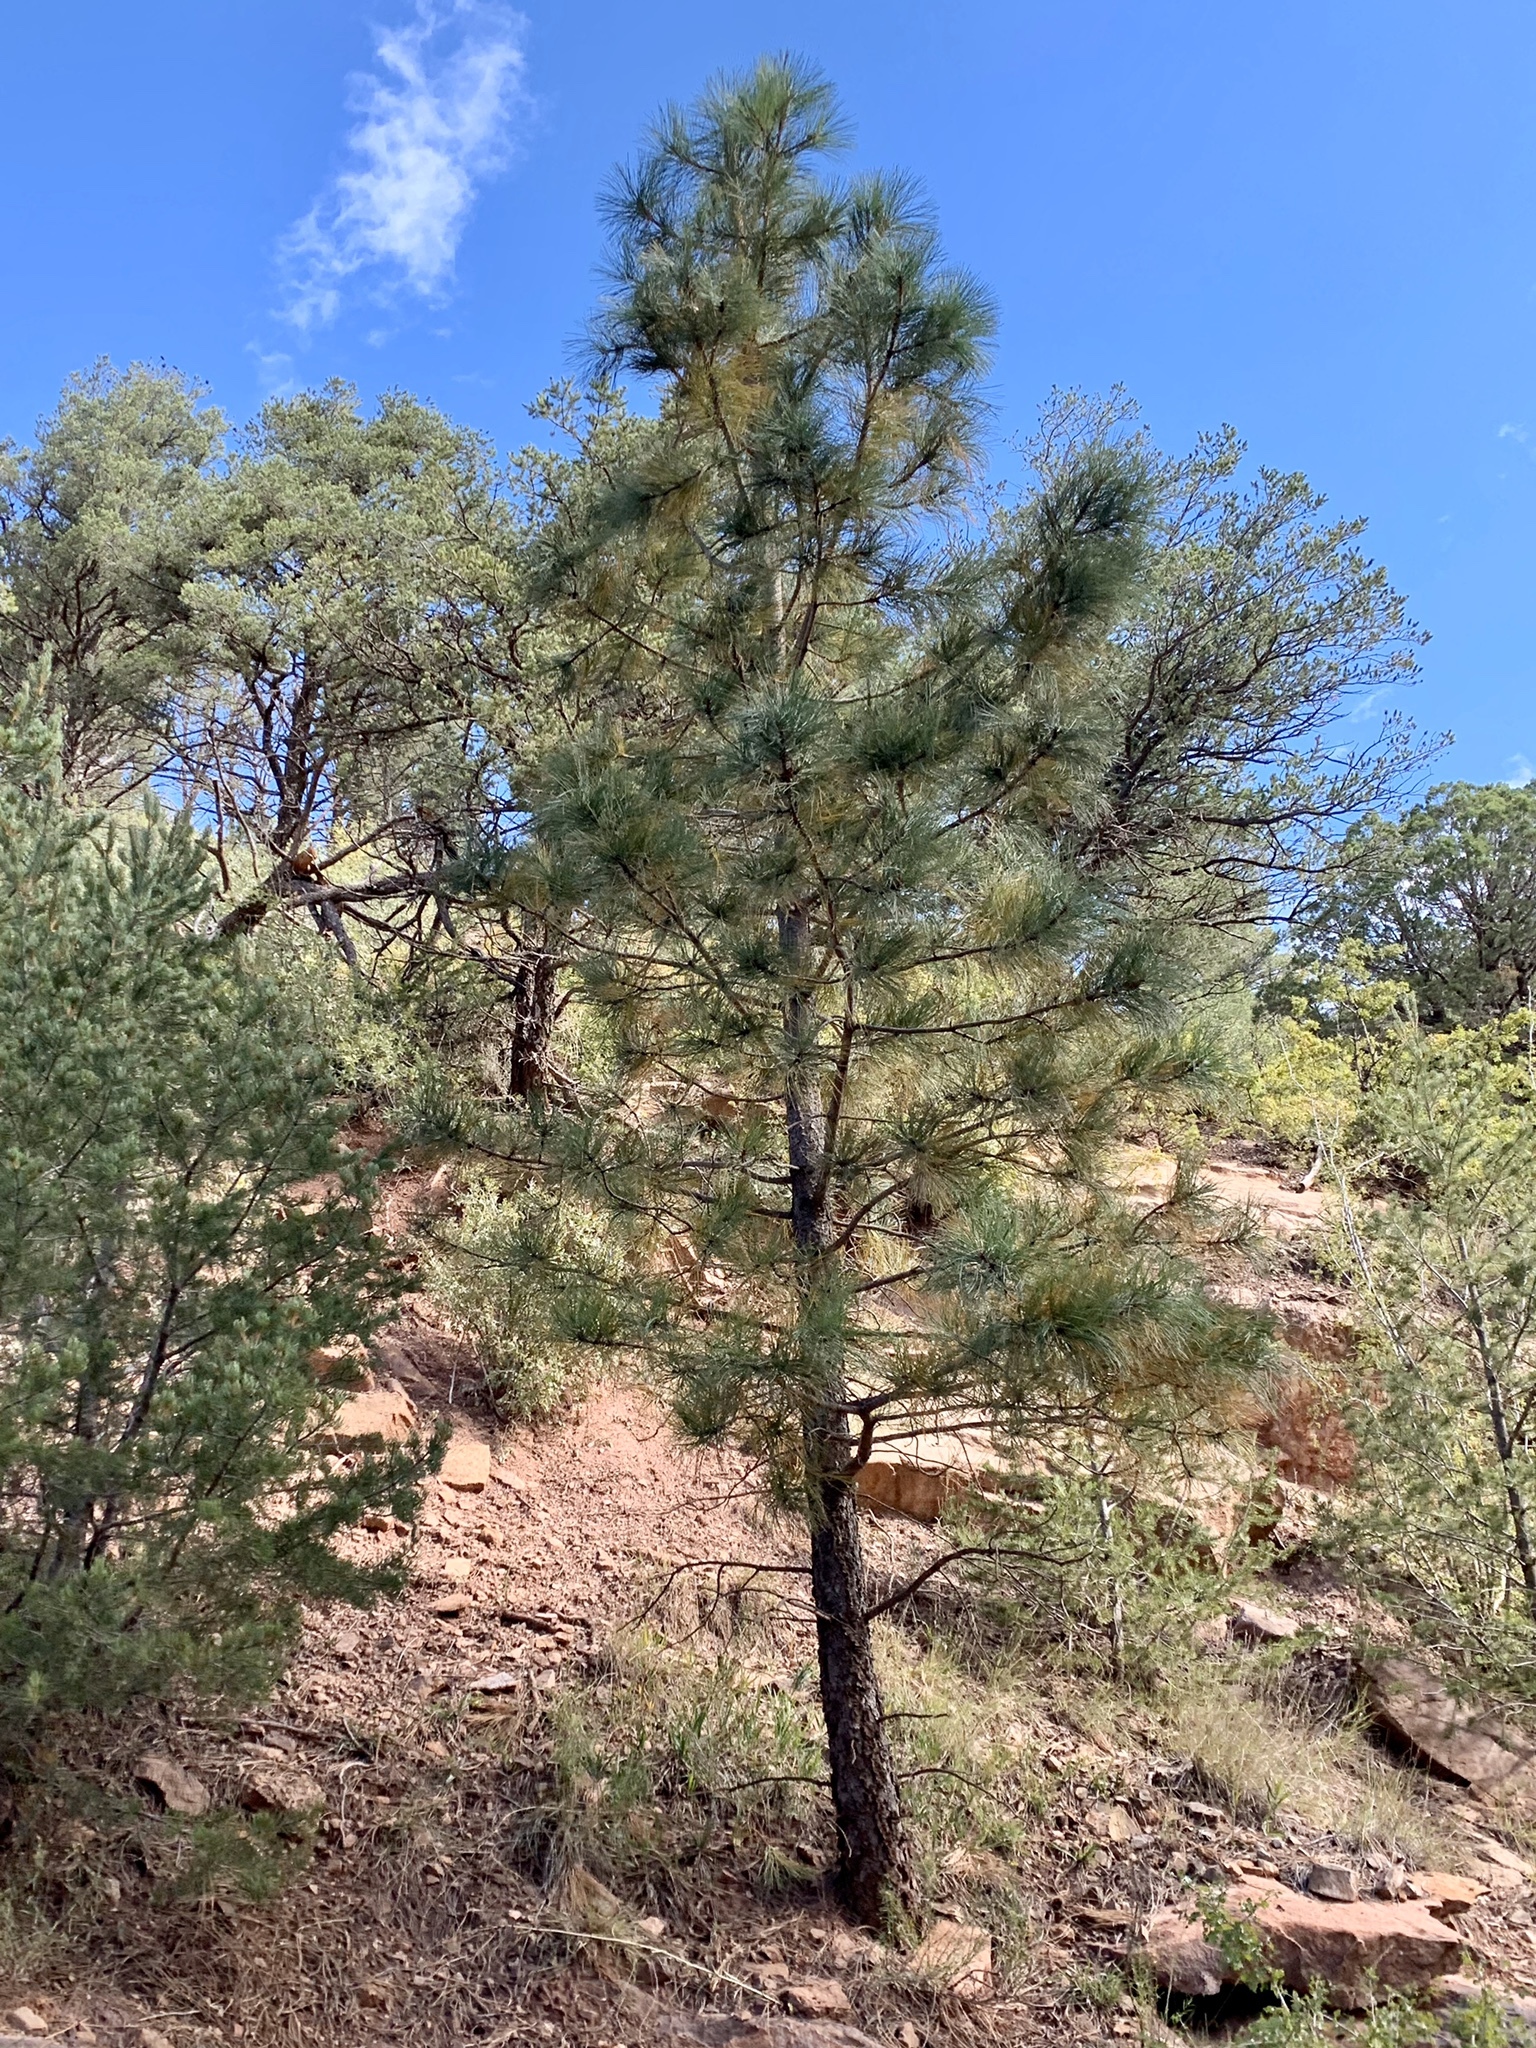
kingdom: Plantae
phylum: Tracheophyta
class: Pinopsida
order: Pinales
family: Pinaceae
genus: Pinus
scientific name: Pinus ponderosa
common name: Western yellow-pine
